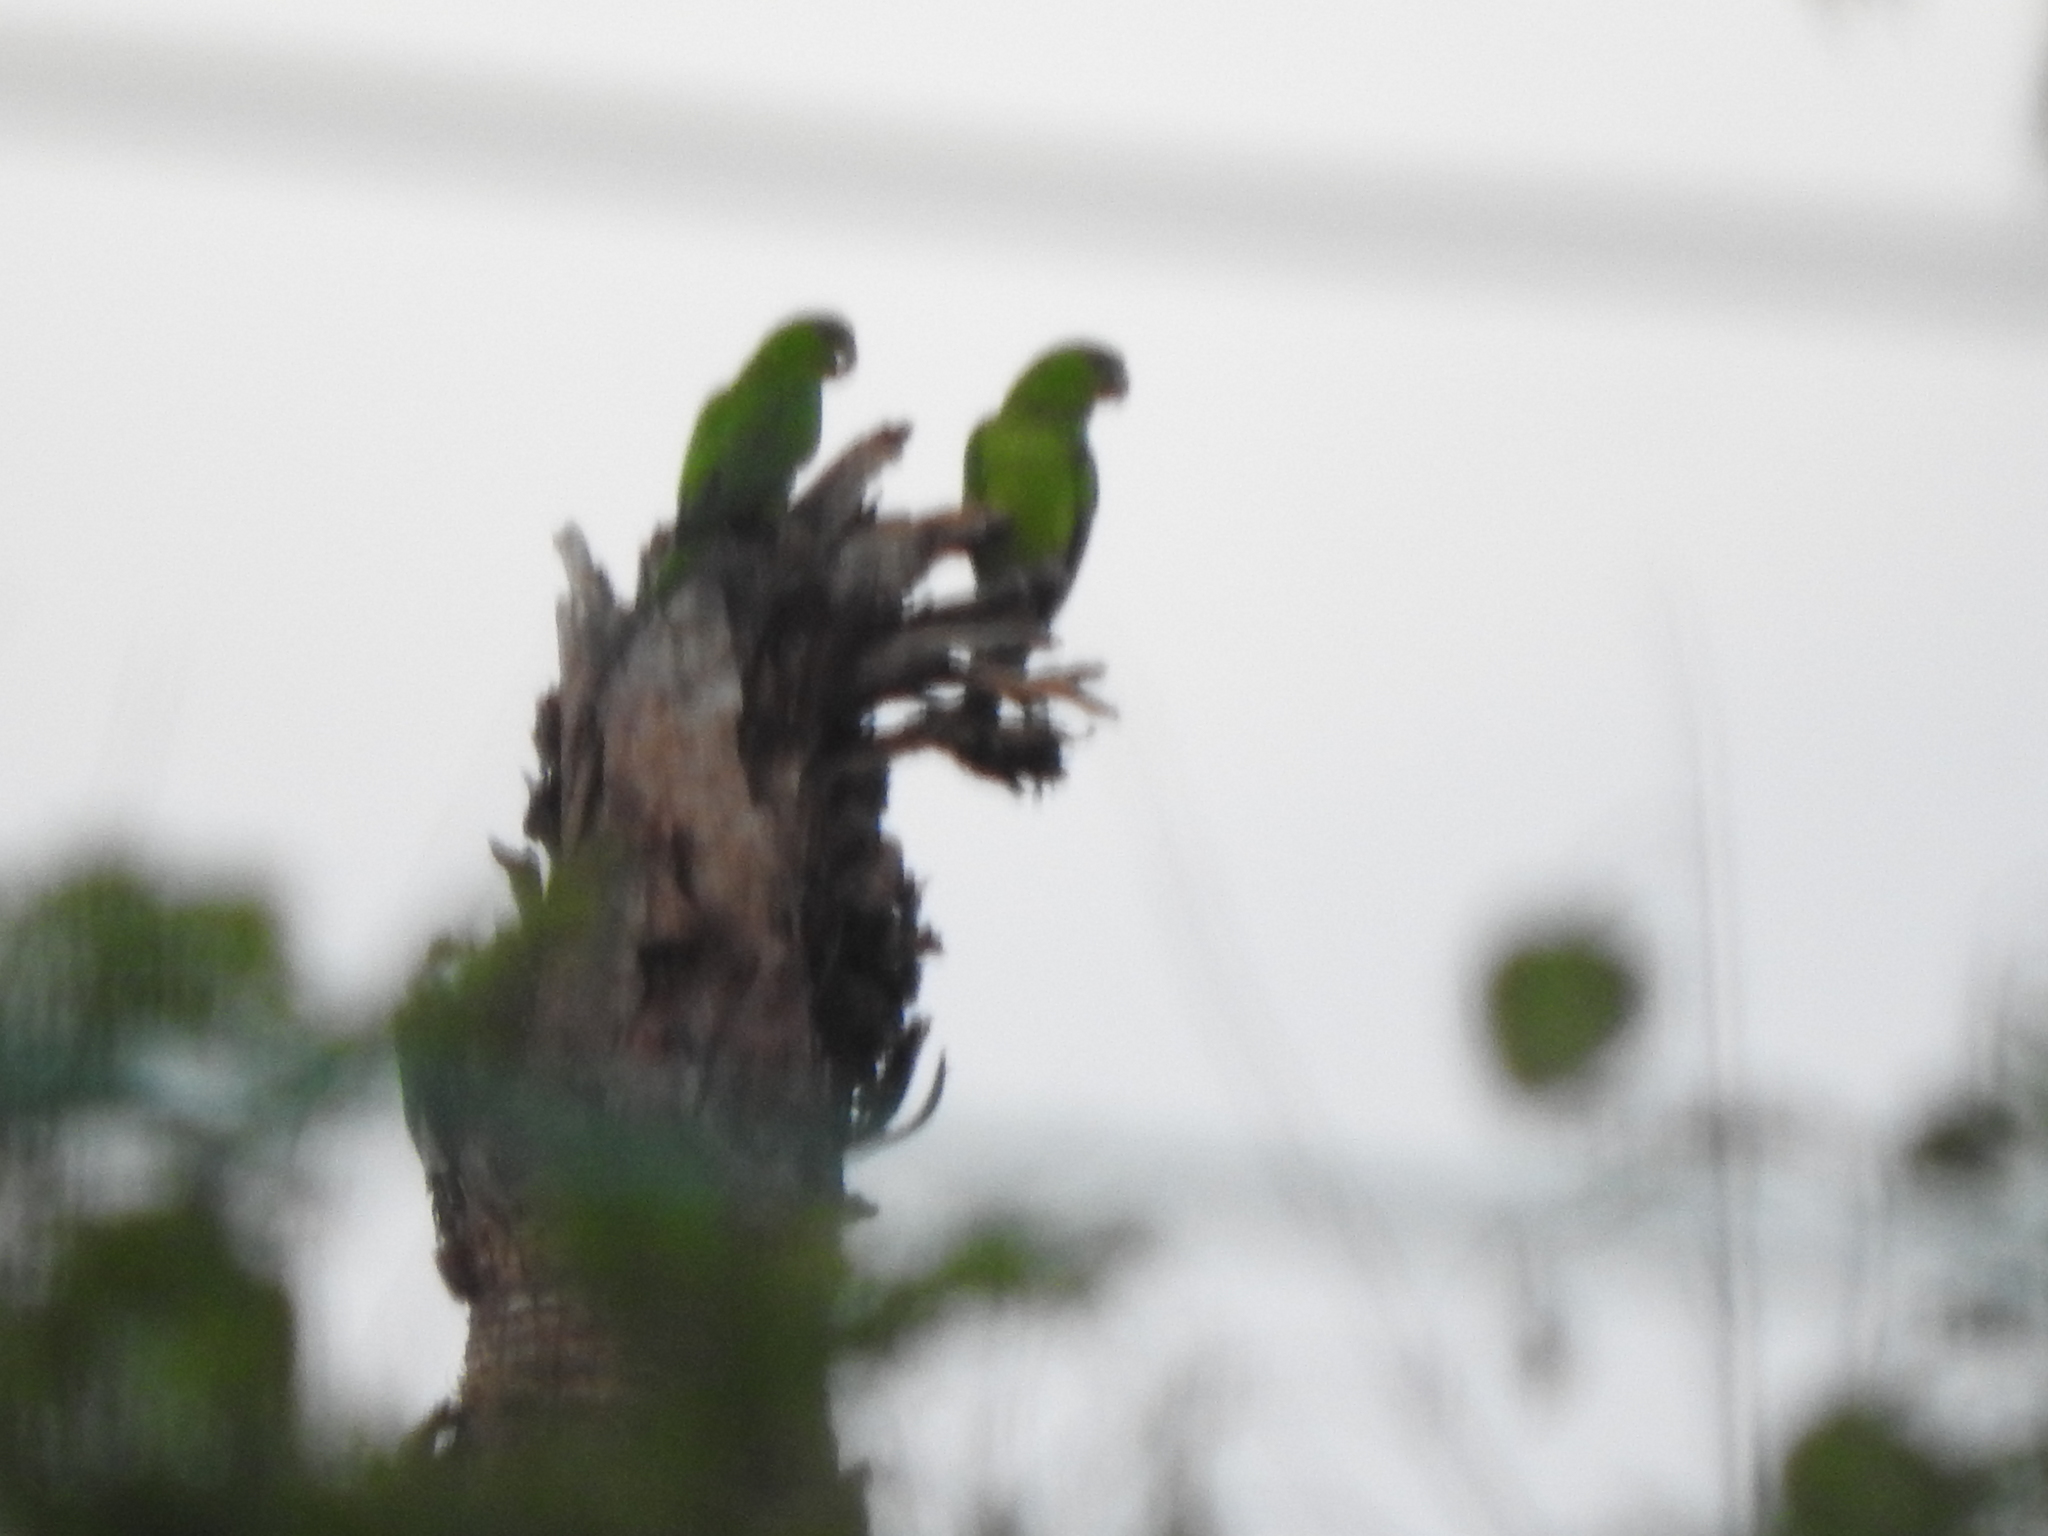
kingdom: Animalia
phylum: Chordata
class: Aves
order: Psittaciformes
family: Psittacidae
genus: Aratinga
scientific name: Aratinga holochlora
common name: Green parakeet
